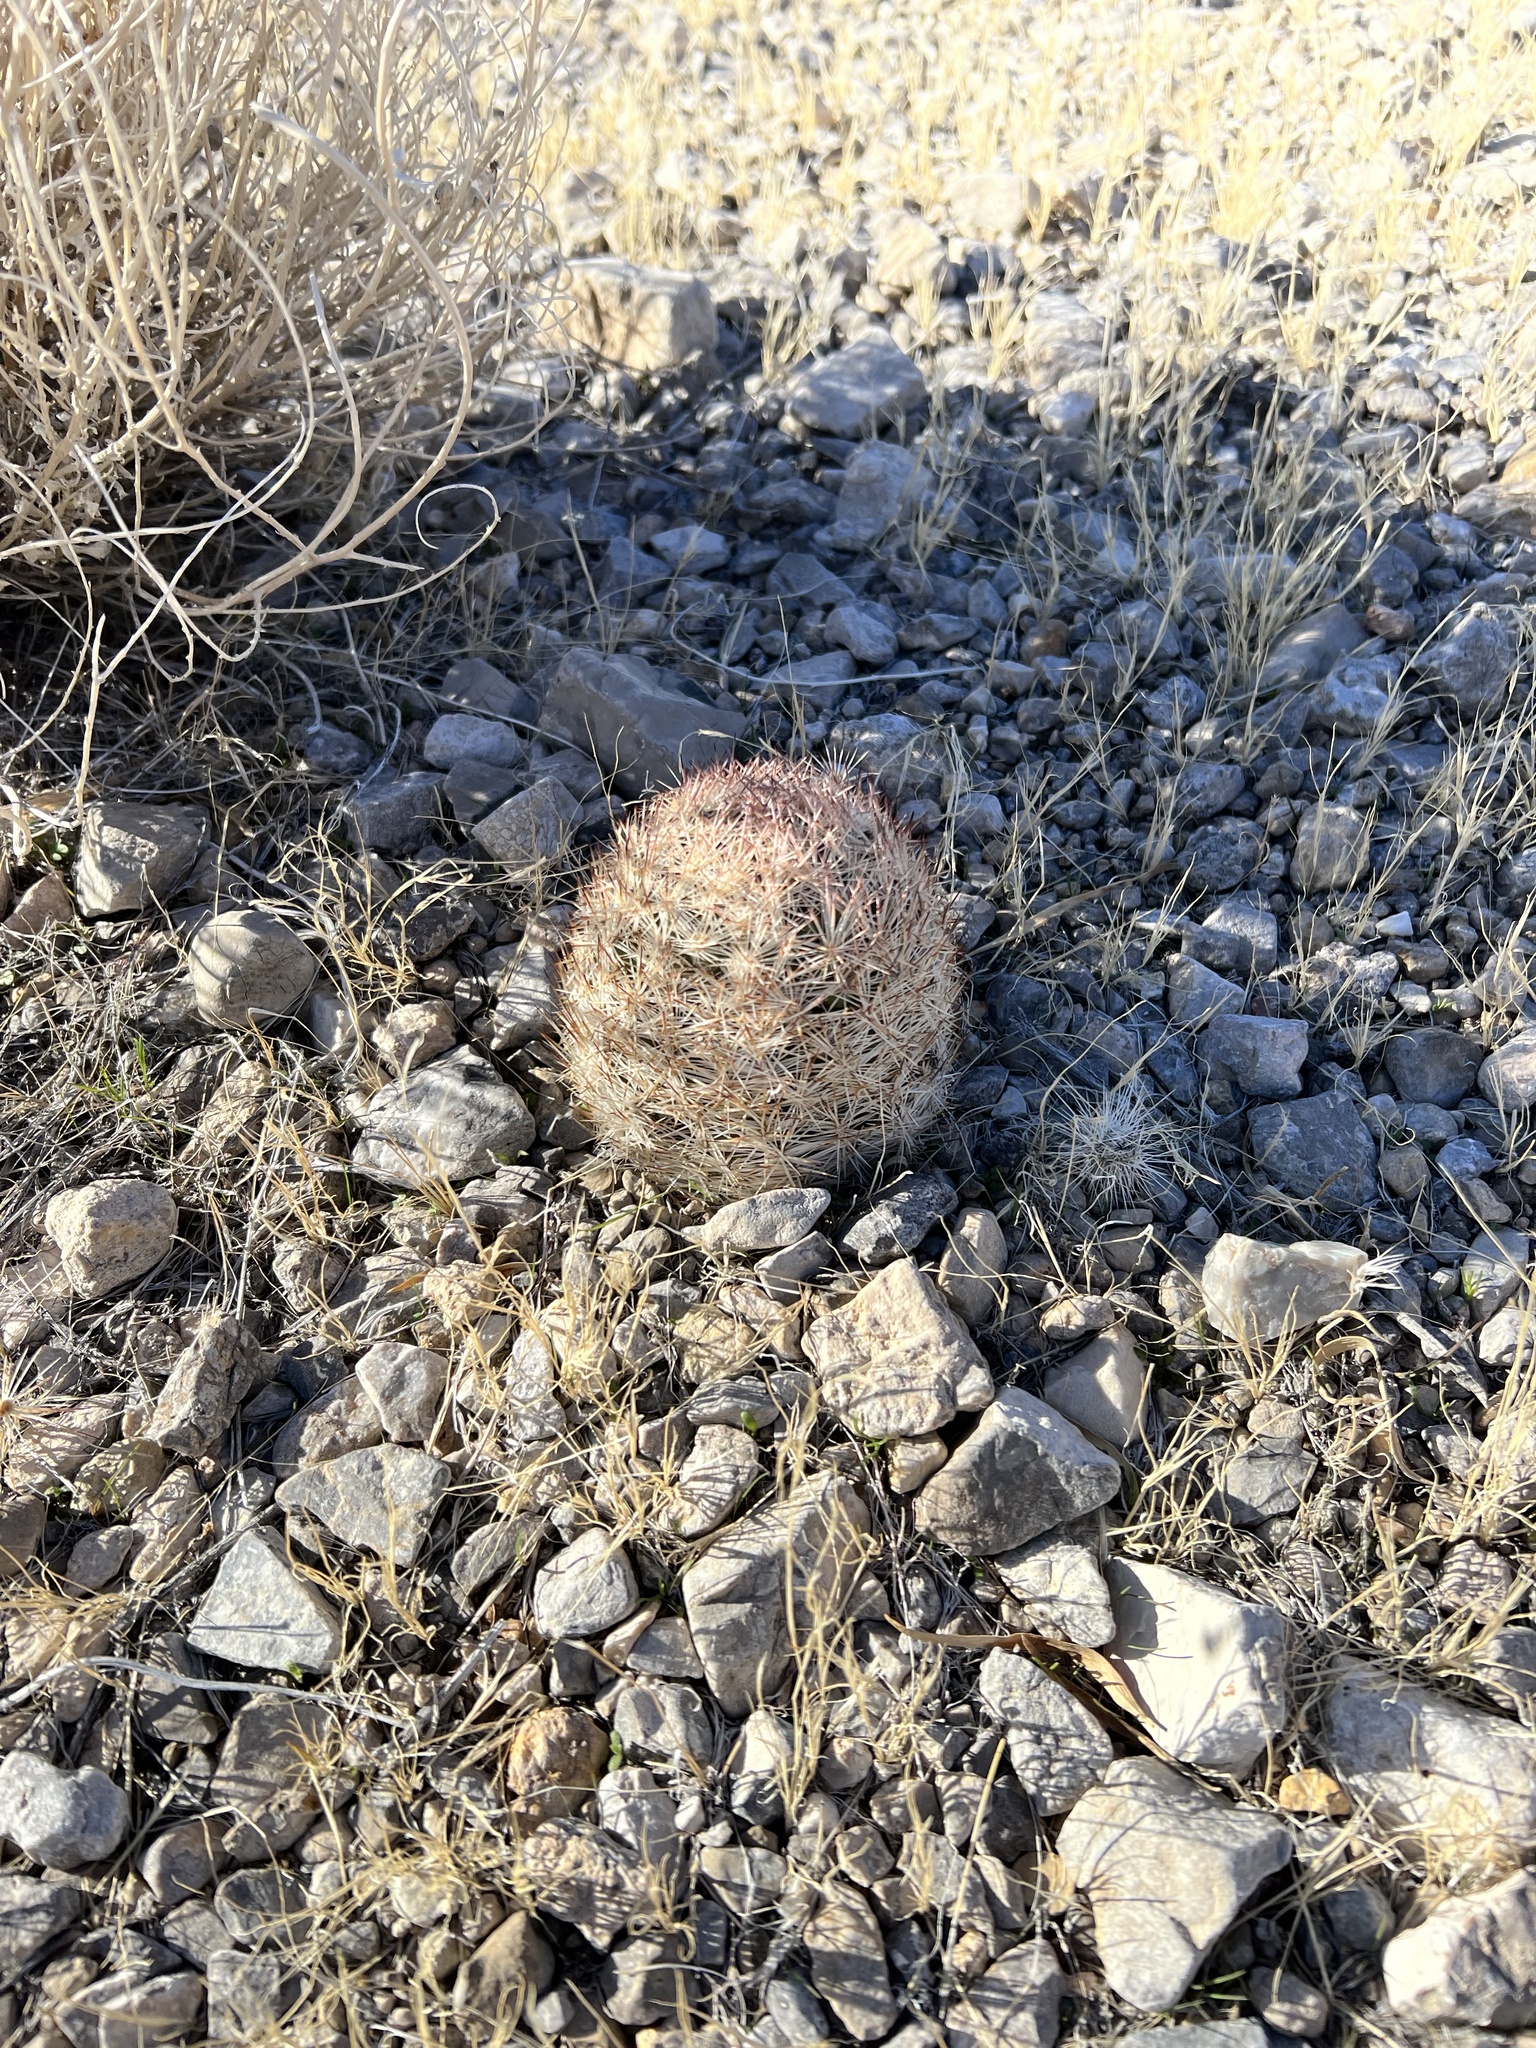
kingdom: Plantae
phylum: Tracheophyta
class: Magnoliopsida
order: Caryophyllales
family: Cactaceae
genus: Pelecyphora
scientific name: Pelecyphora dasyacantha
